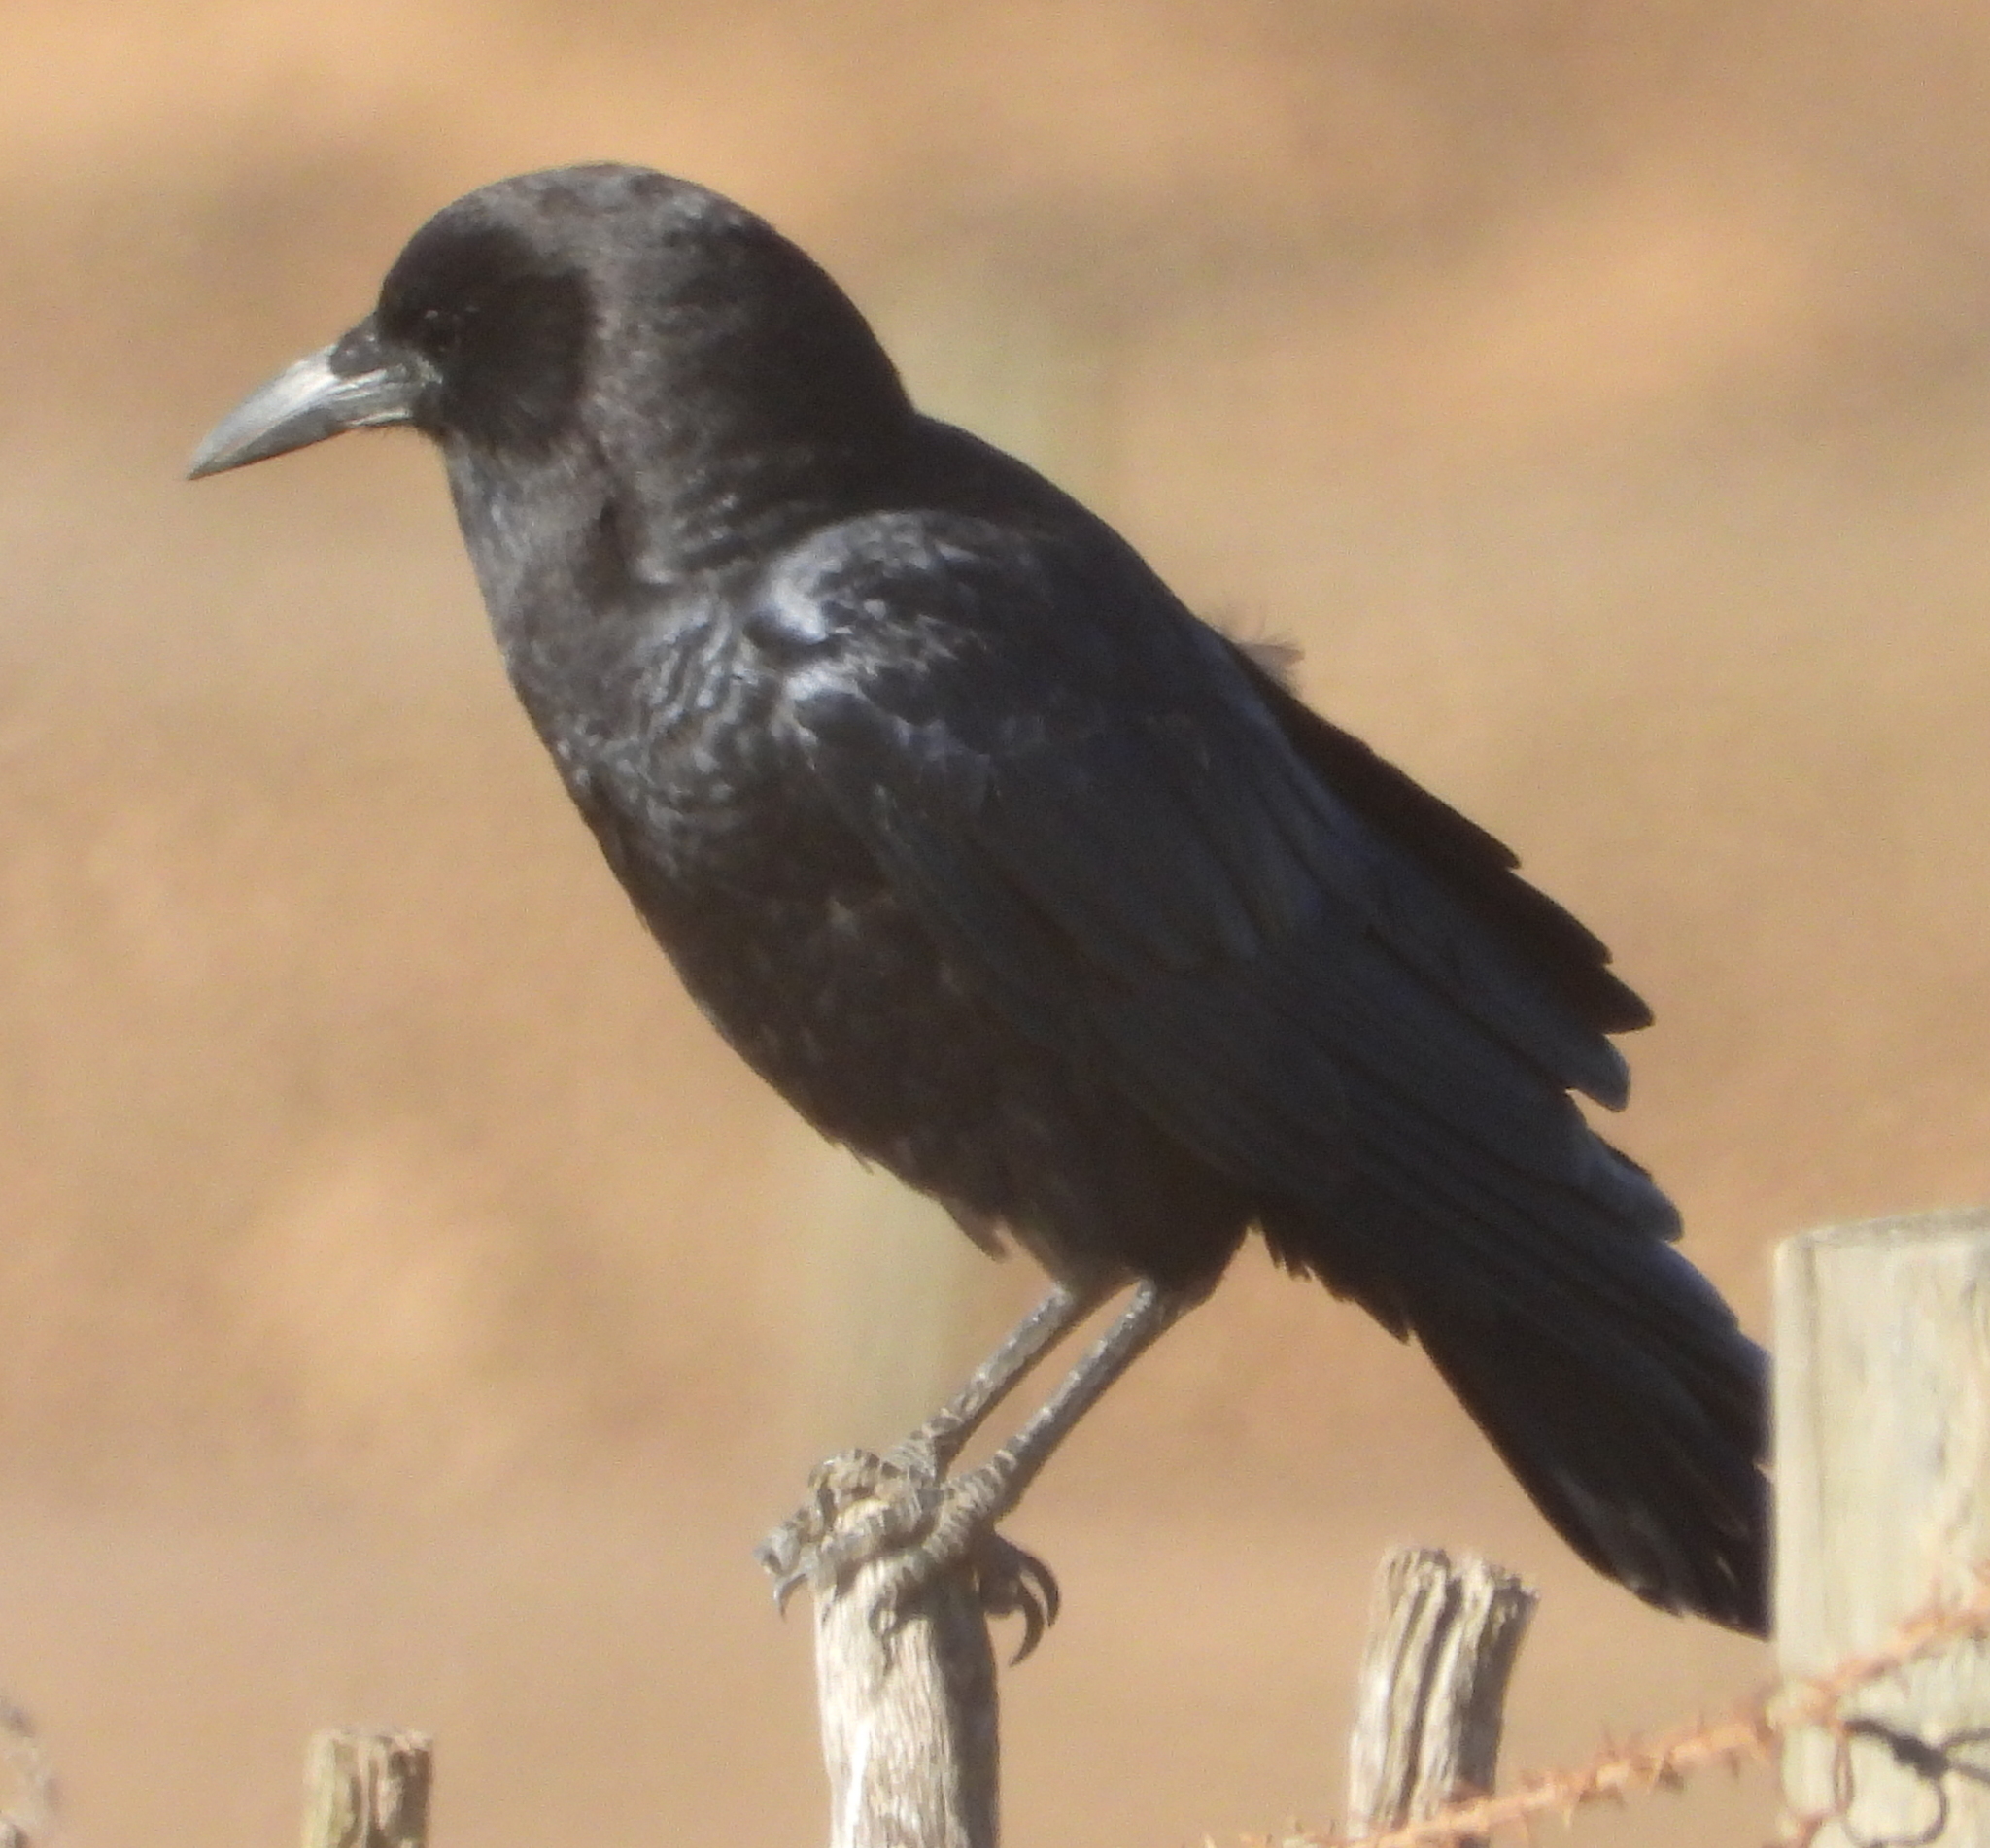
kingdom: Animalia
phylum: Chordata
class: Aves
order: Passeriformes
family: Corvidae
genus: Corvus
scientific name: Corvus capensis
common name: Cape crow
